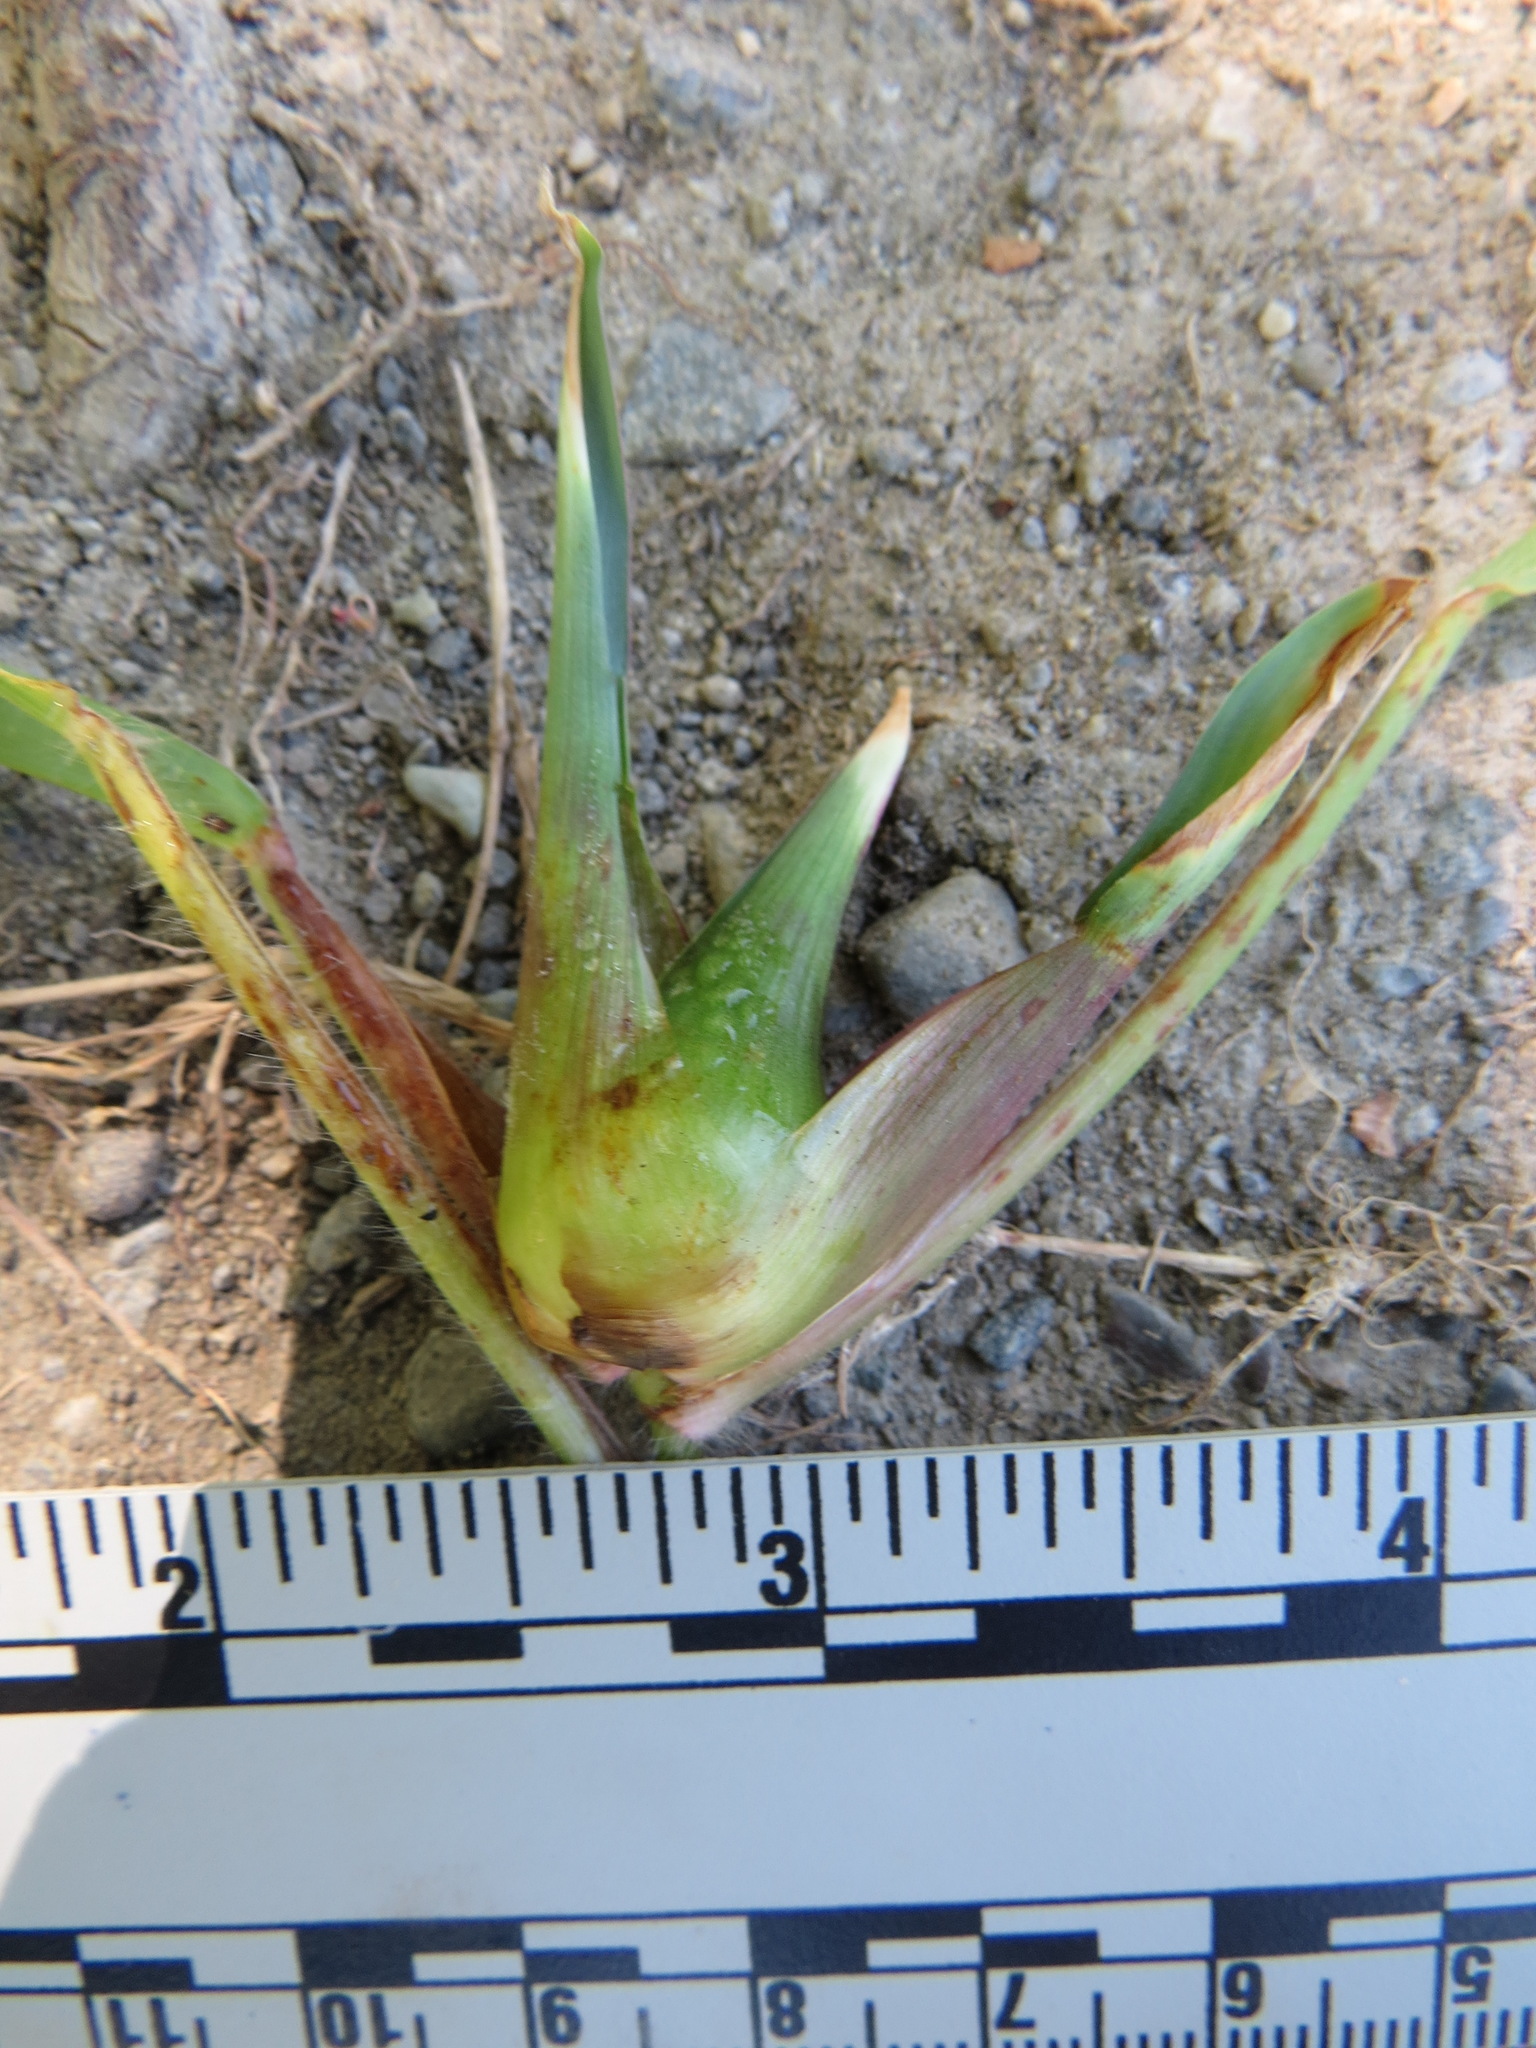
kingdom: Animalia
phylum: Arthropoda
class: Insecta
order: Diptera
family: Cecidomyiidae
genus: Edestochilus
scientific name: Edestochilus allioides
